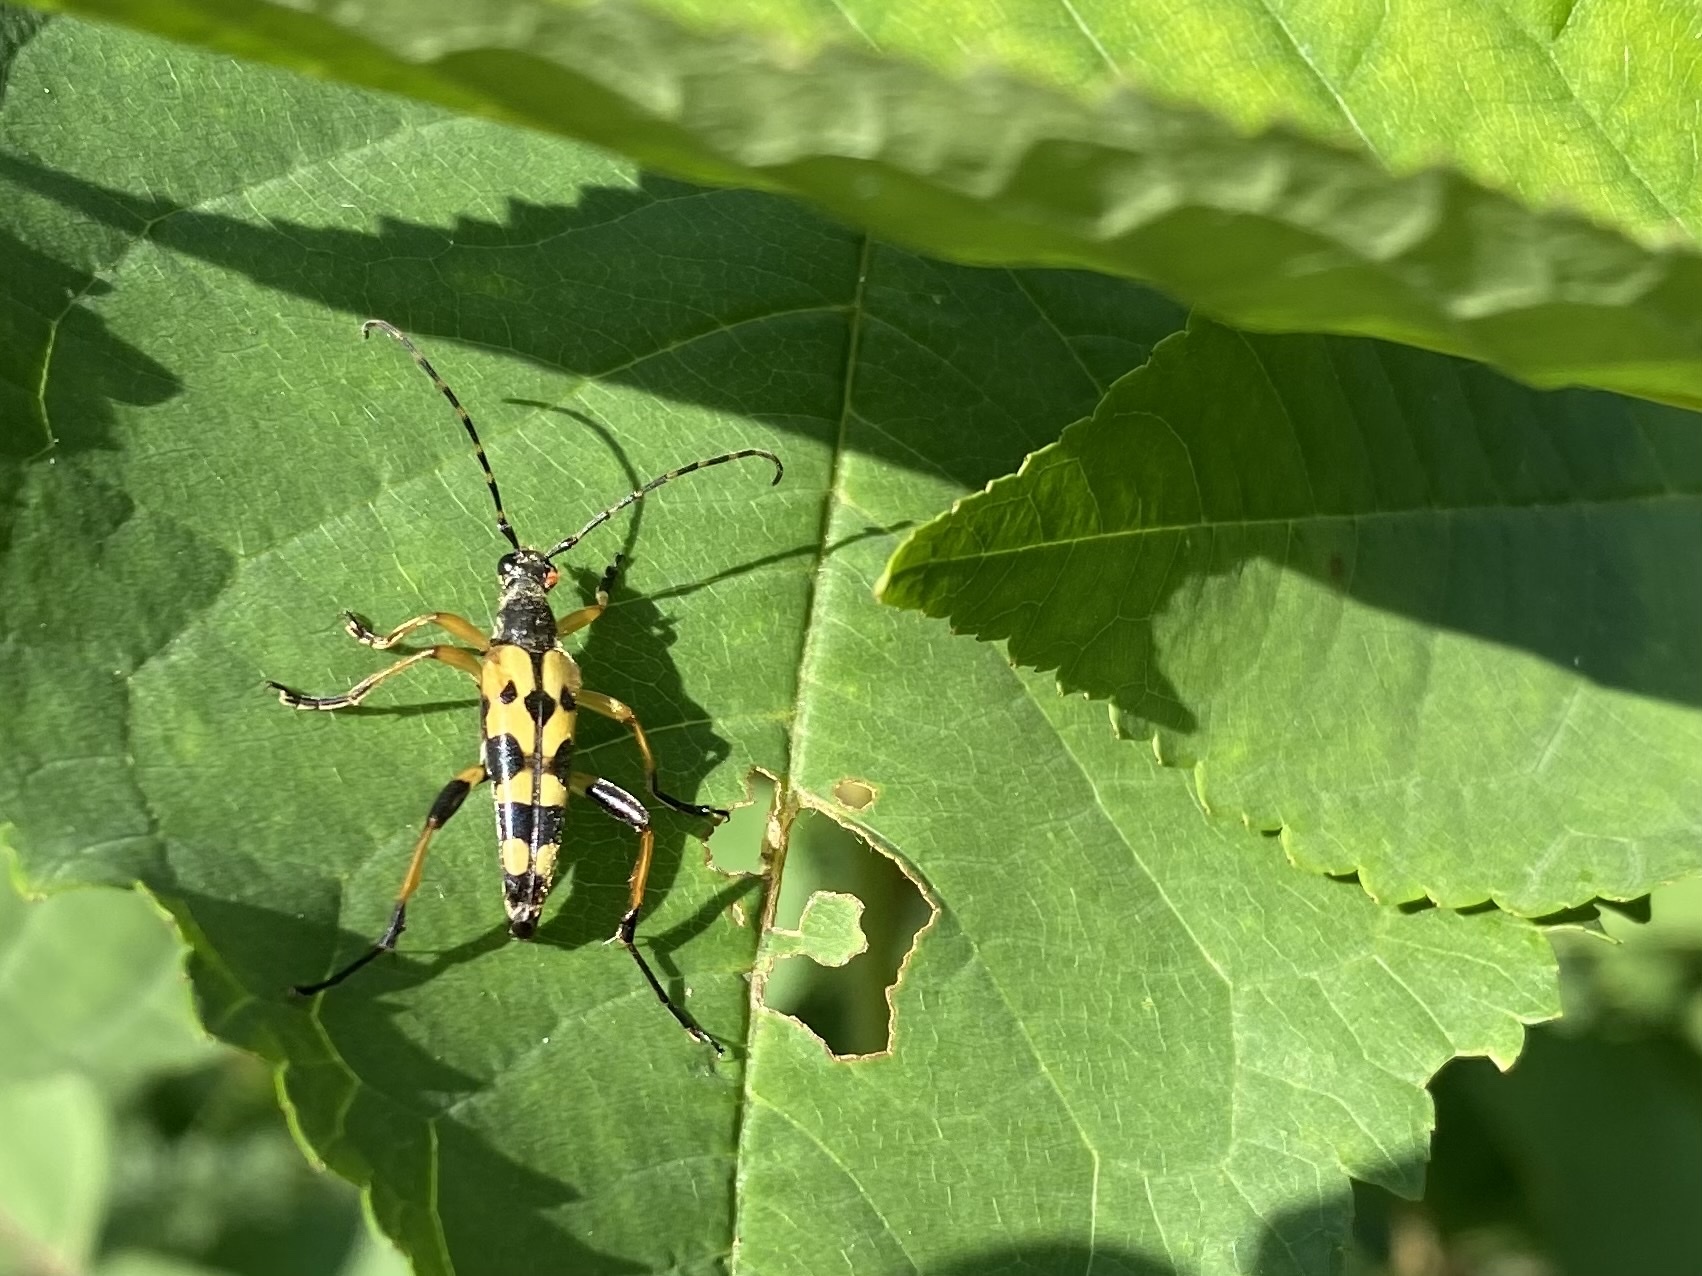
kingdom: Animalia
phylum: Arthropoda
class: Insecta
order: Coleoptera
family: Cerambycidae
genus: Rutpela
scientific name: Rutpela maculata
